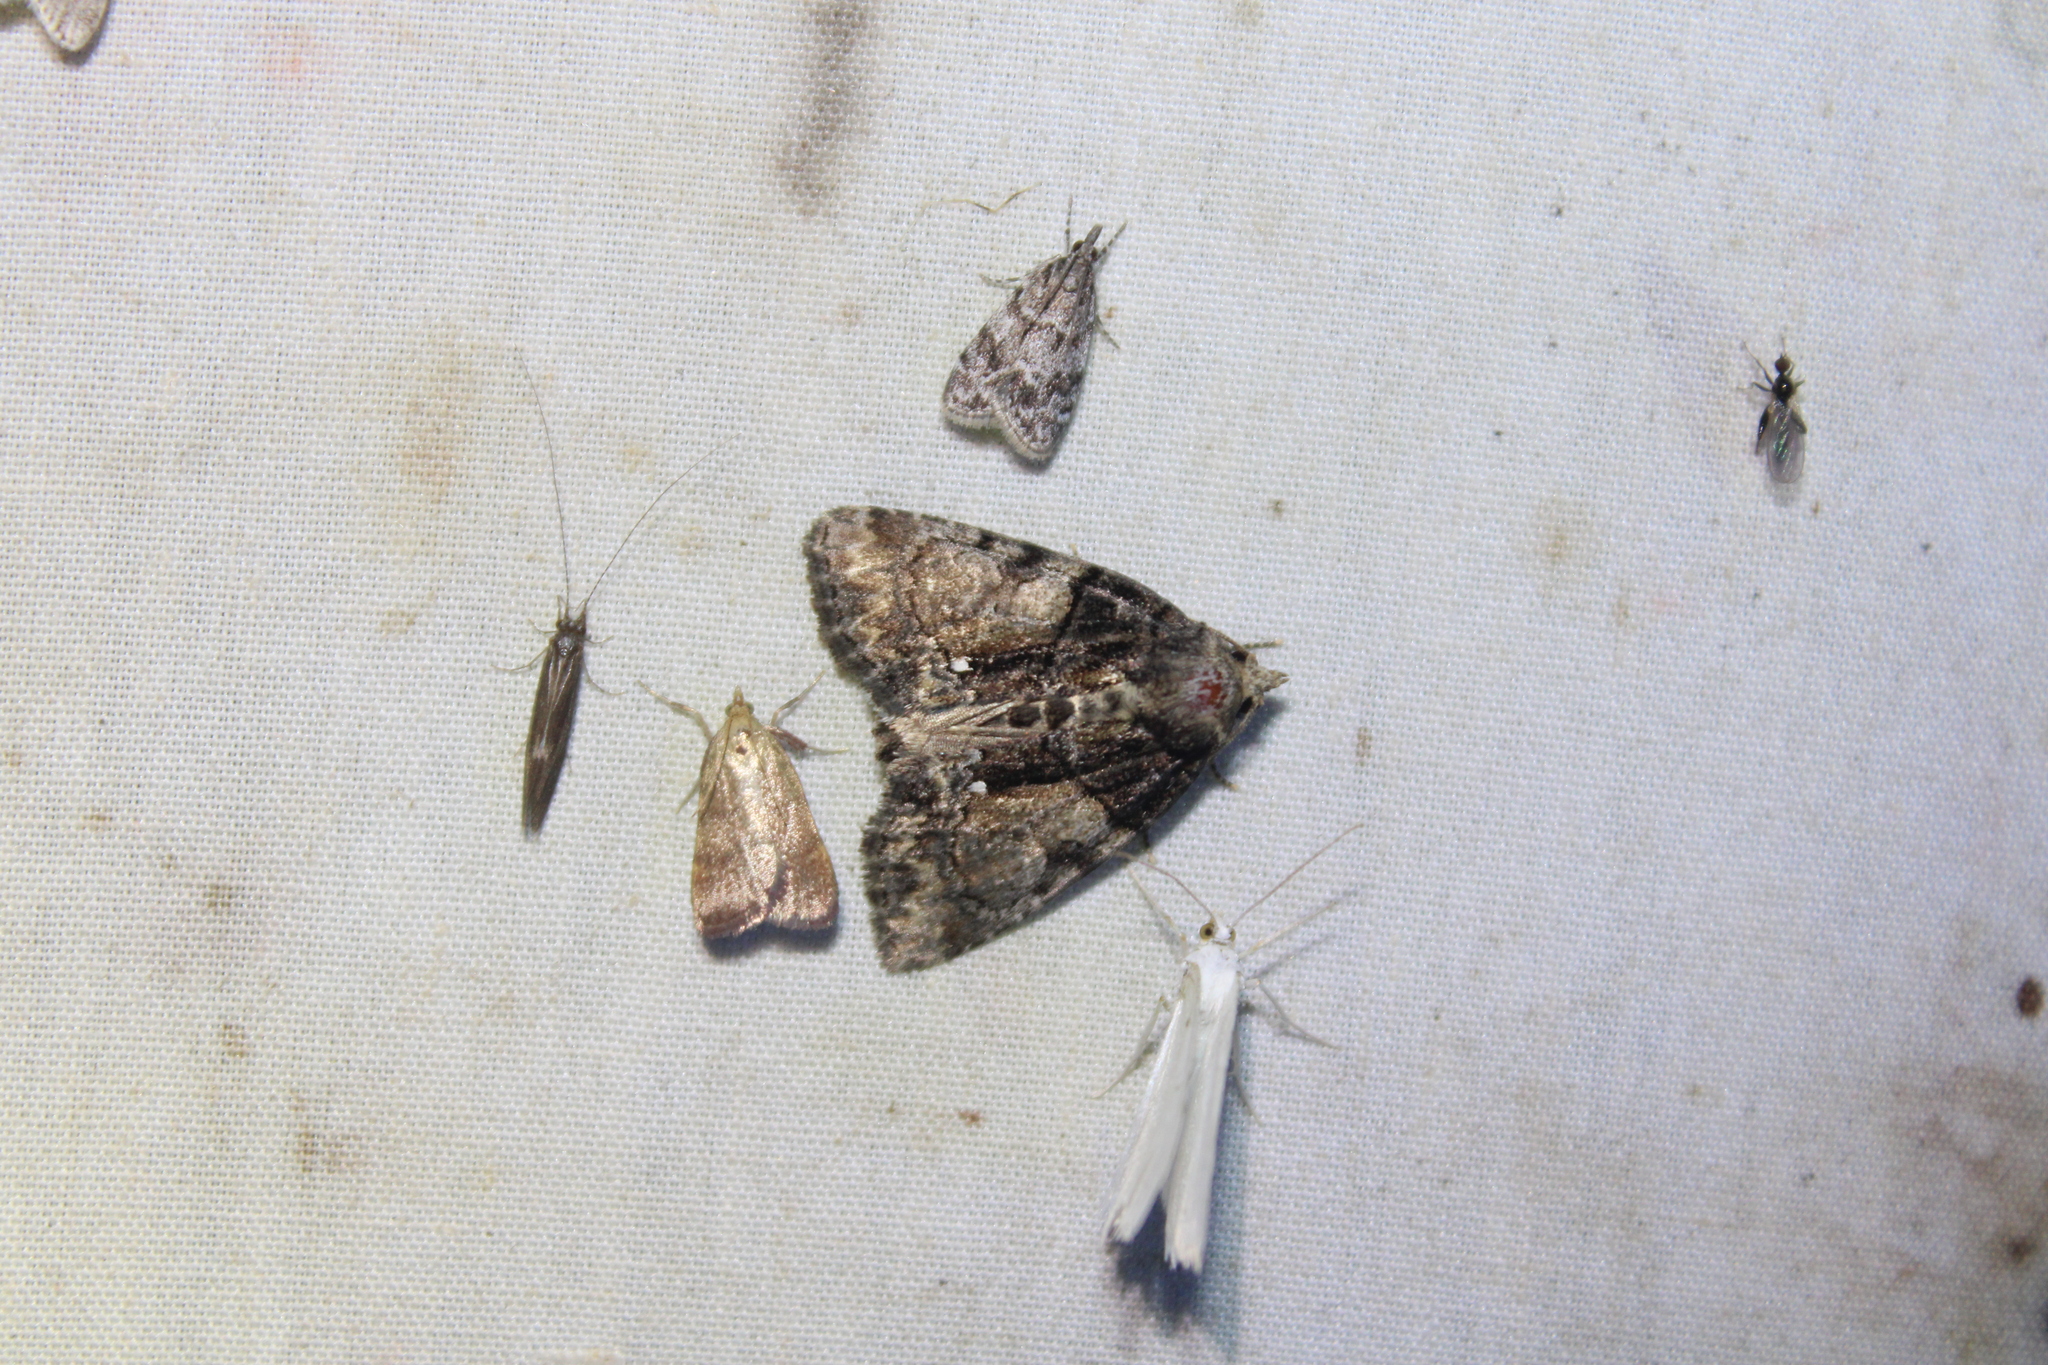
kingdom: Animalia
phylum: Arthropoda
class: Insecta
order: Lepidoptera
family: Noctuidae
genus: Chytonix
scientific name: Chytonix palliatricula
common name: Cloaked marvel
